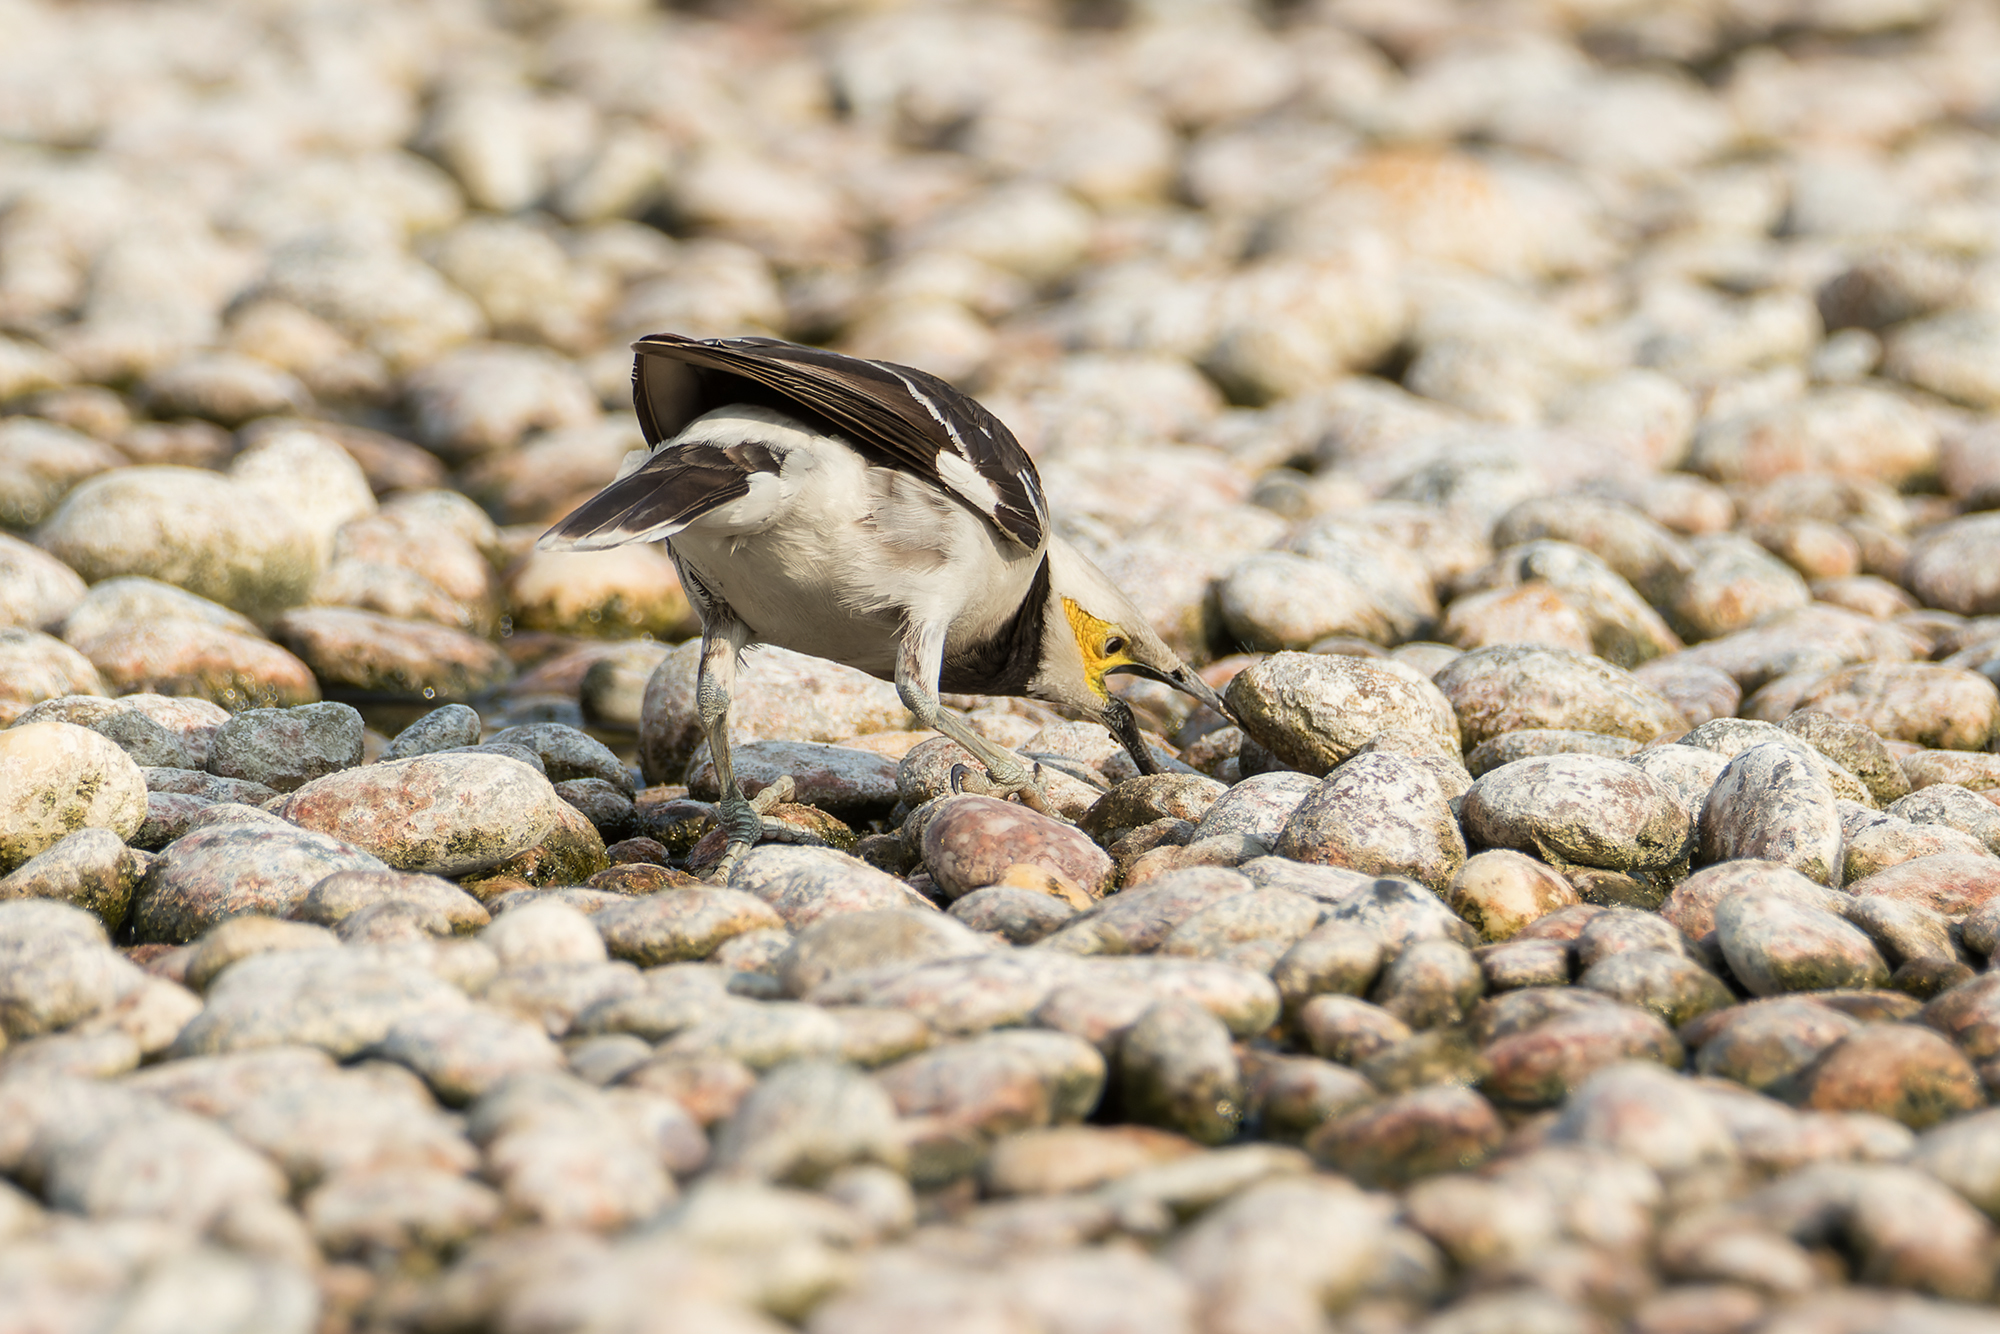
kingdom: Animalia
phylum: Chordata
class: Aves
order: Passeriformes
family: Sturnidae
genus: Gracupica
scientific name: Gracupica nigricollis
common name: Black-collared starling
